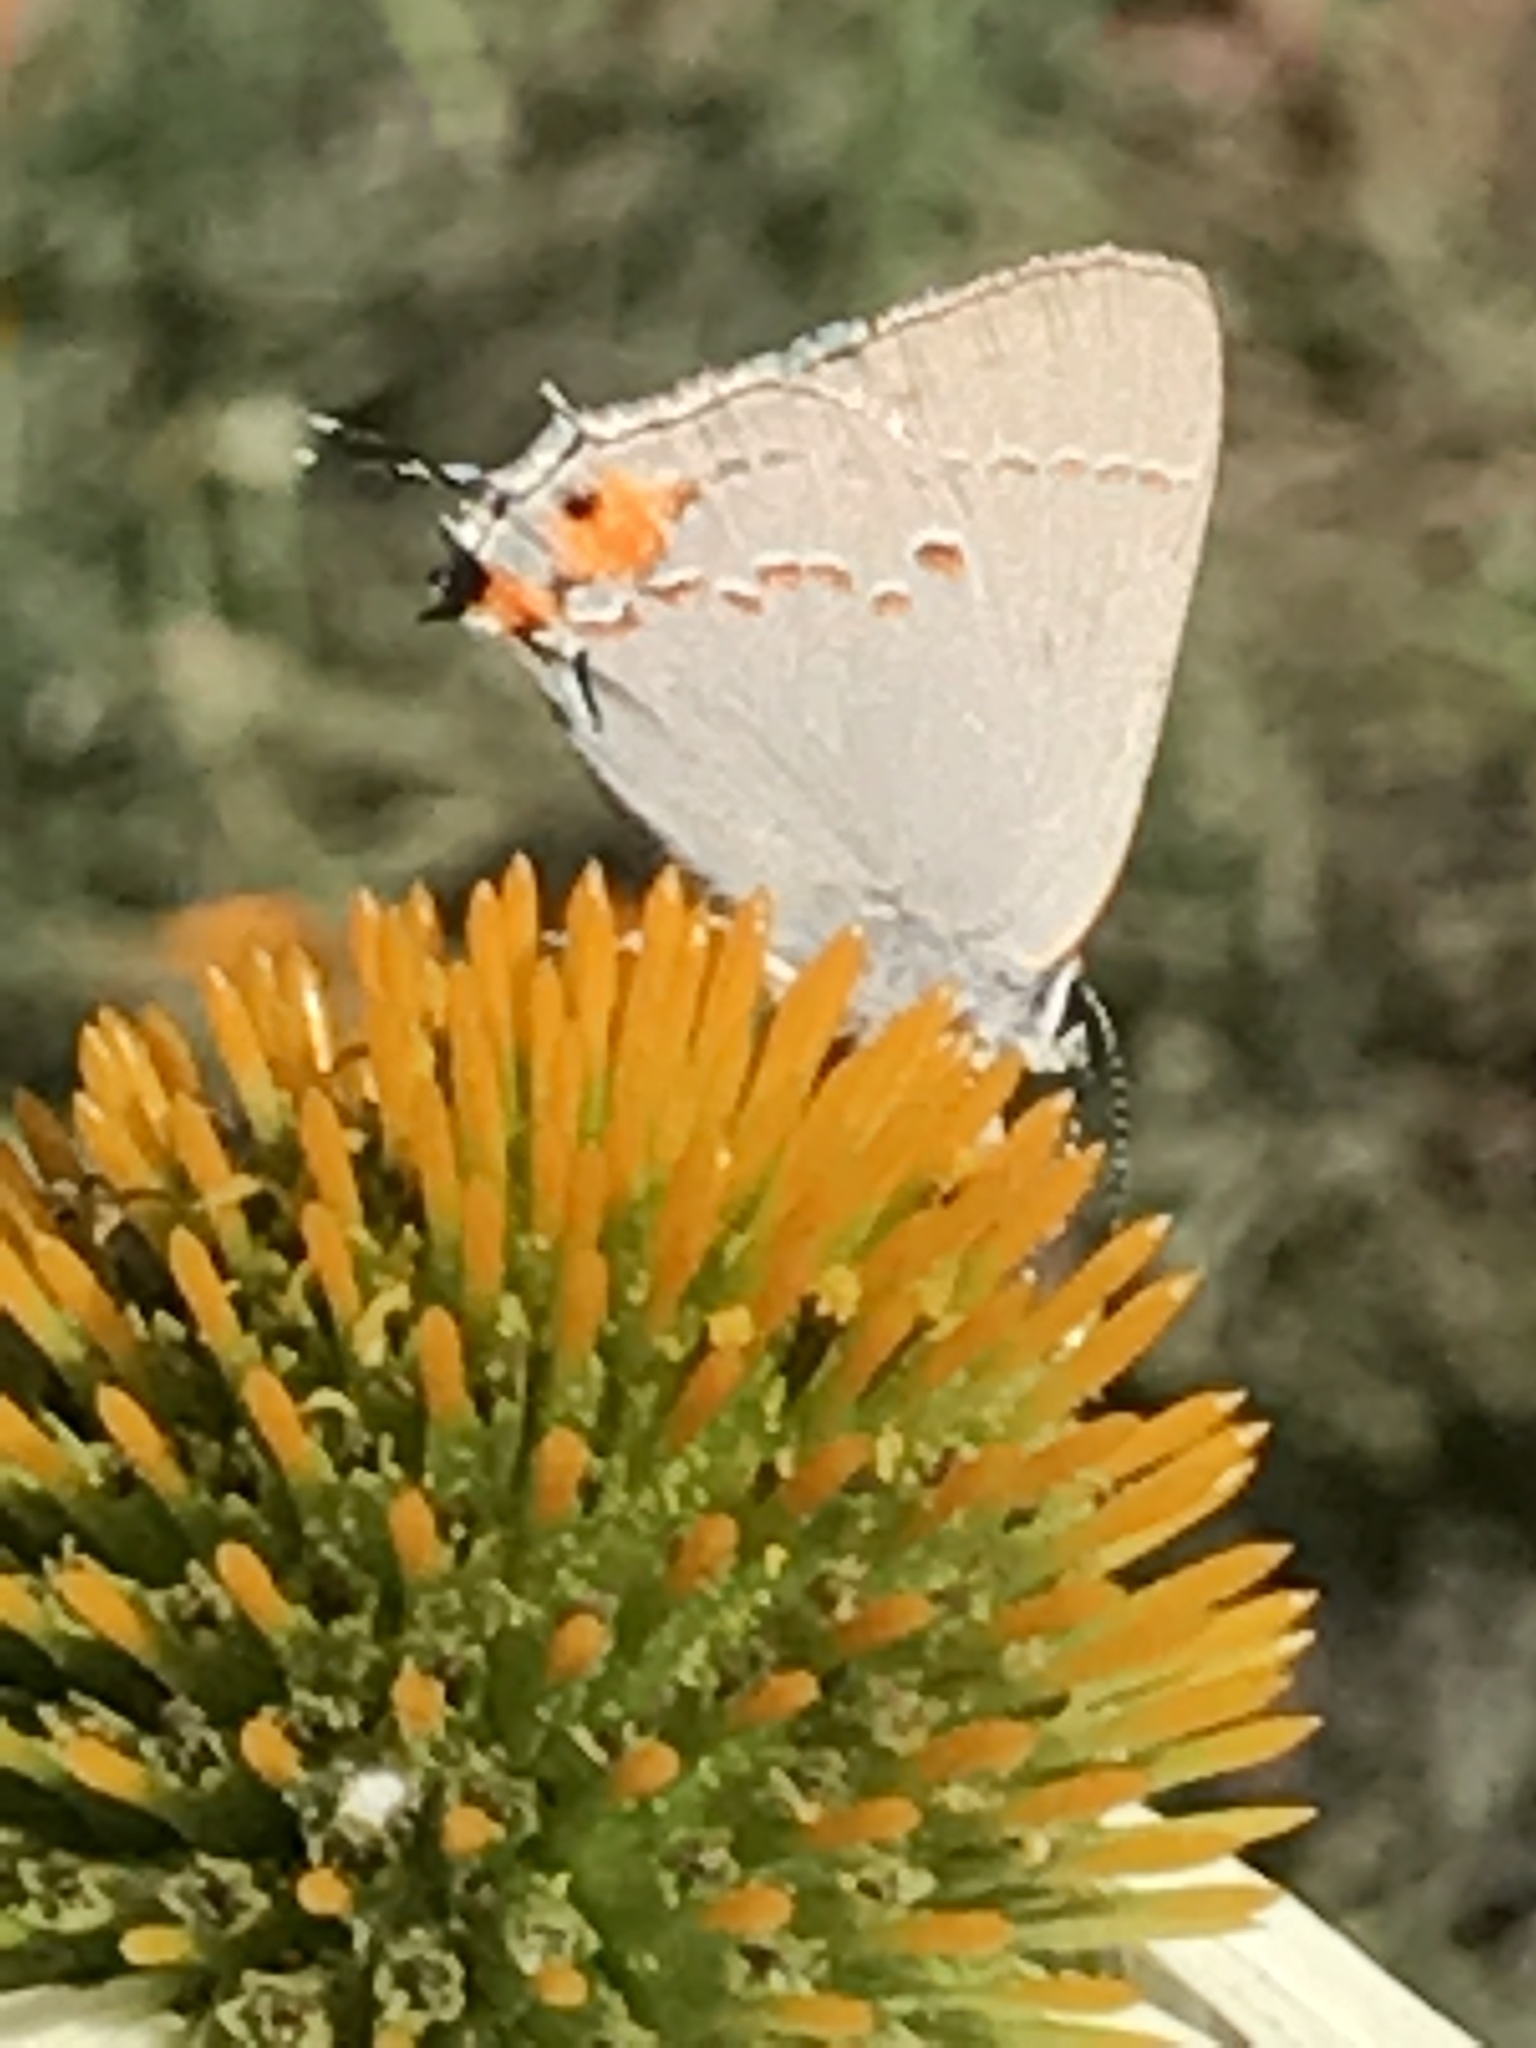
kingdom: Animalia
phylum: Arthropoda
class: Insecta
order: Lepidoptera
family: Lycaenidae
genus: Strymon
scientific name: Strymon melinus
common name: Gray hairstreak
